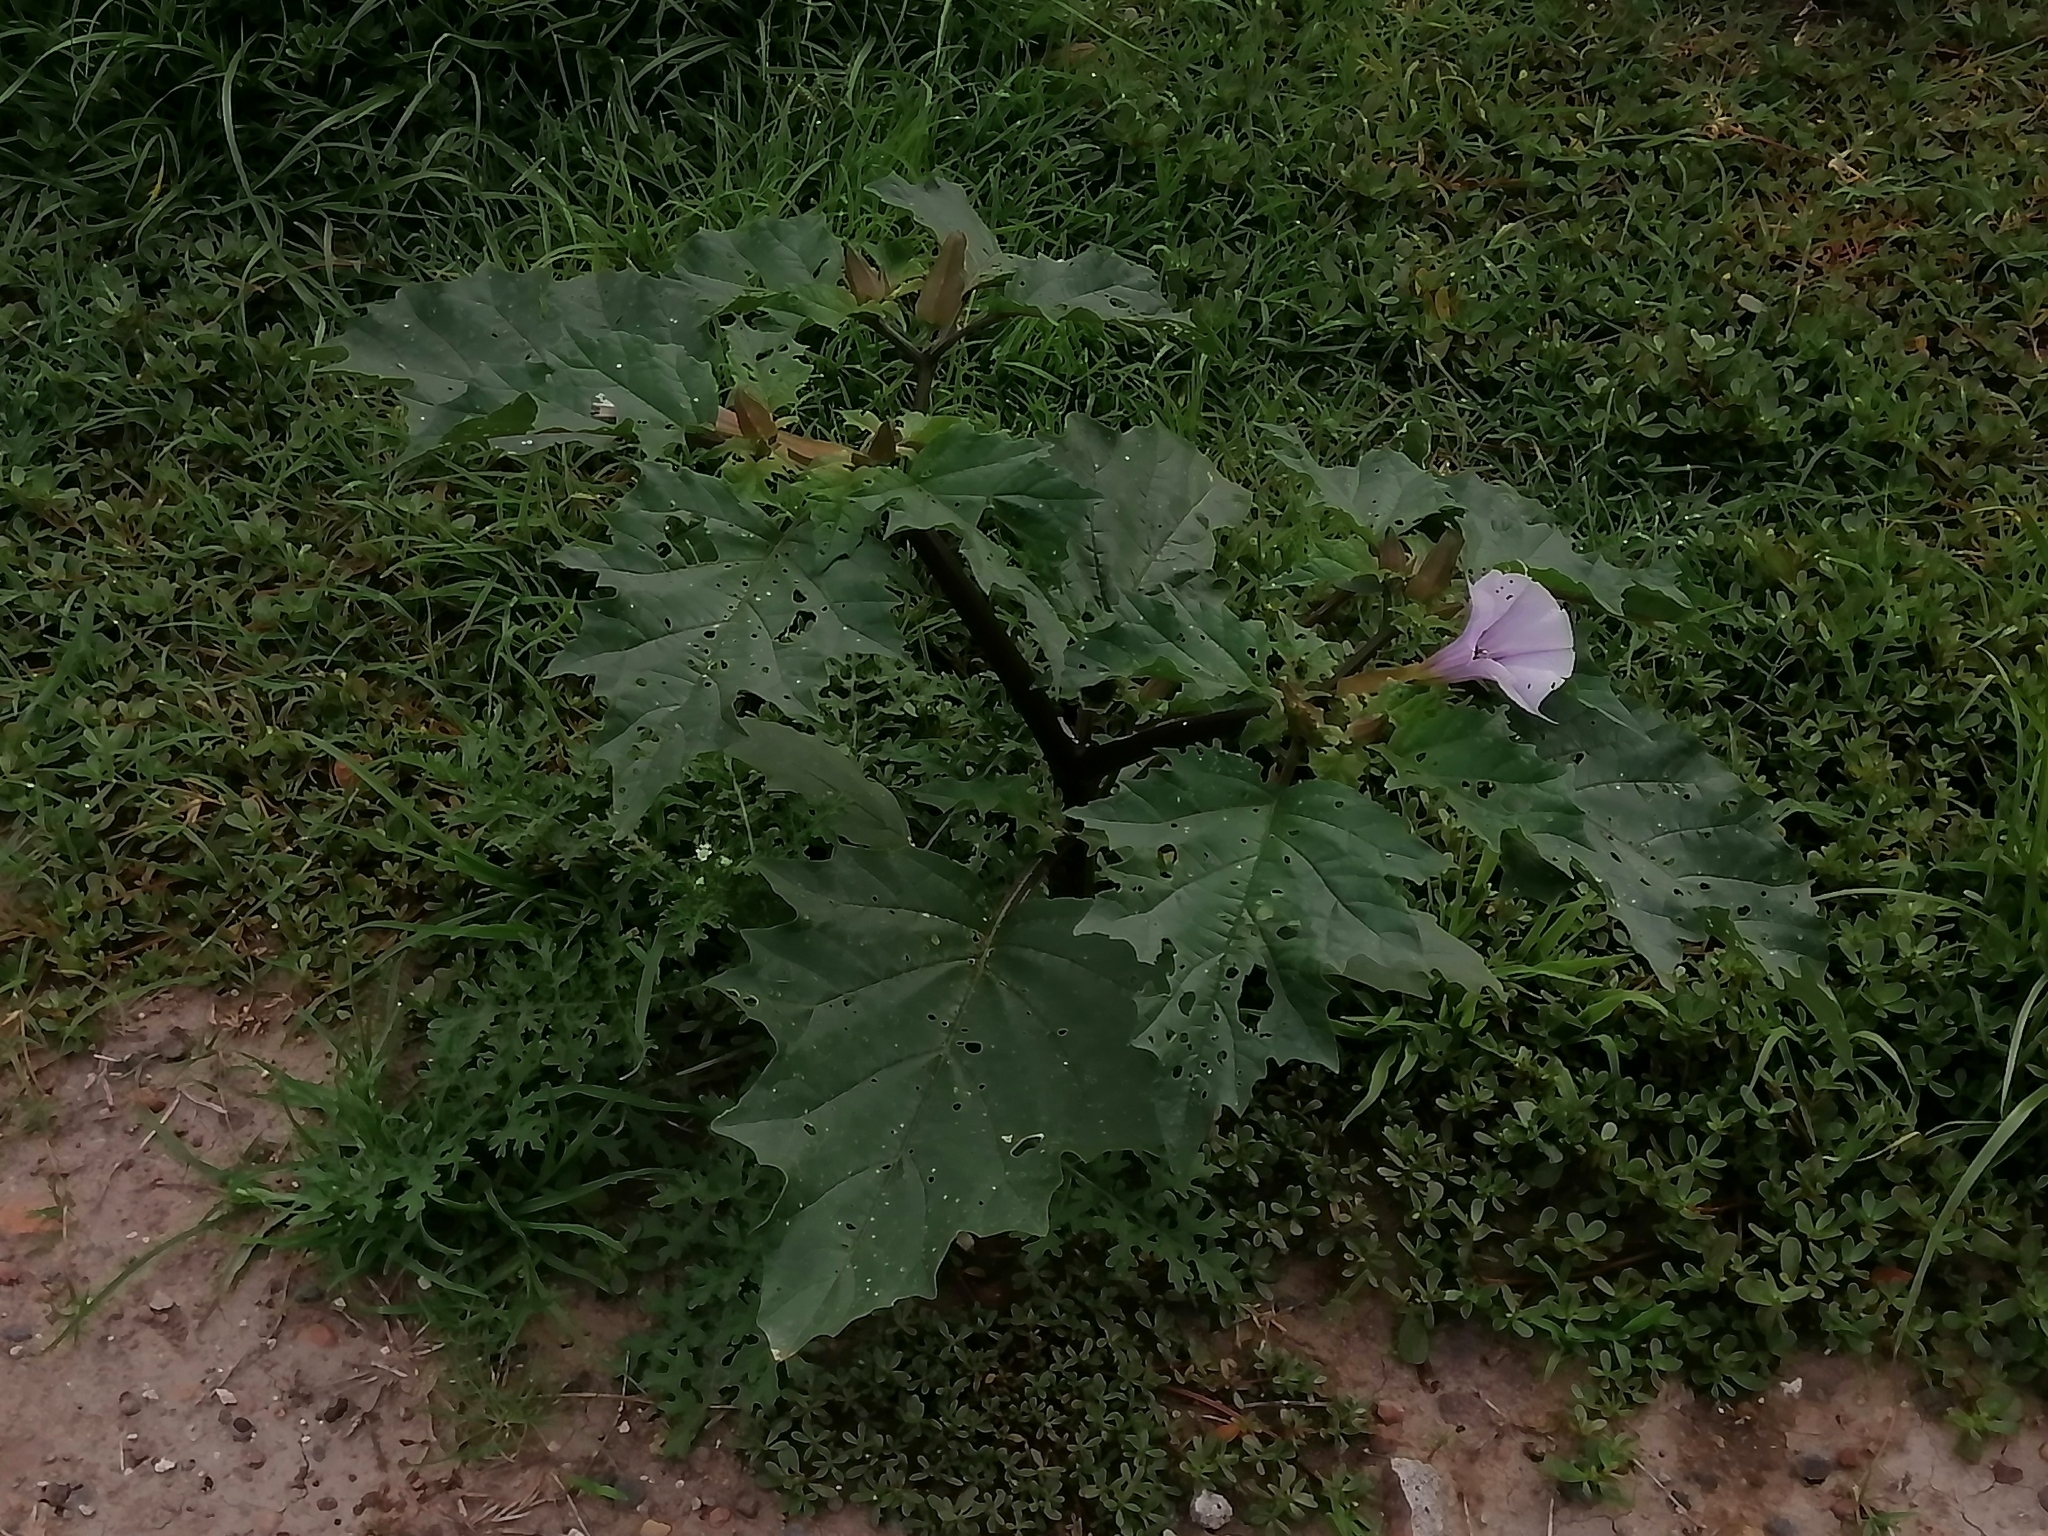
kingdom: Plantae
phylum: Tracheophyta
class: Magnoliopsida
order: Solanales
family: Solanaceae
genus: Datura
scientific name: Datura stramonium
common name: Thorn-apple
